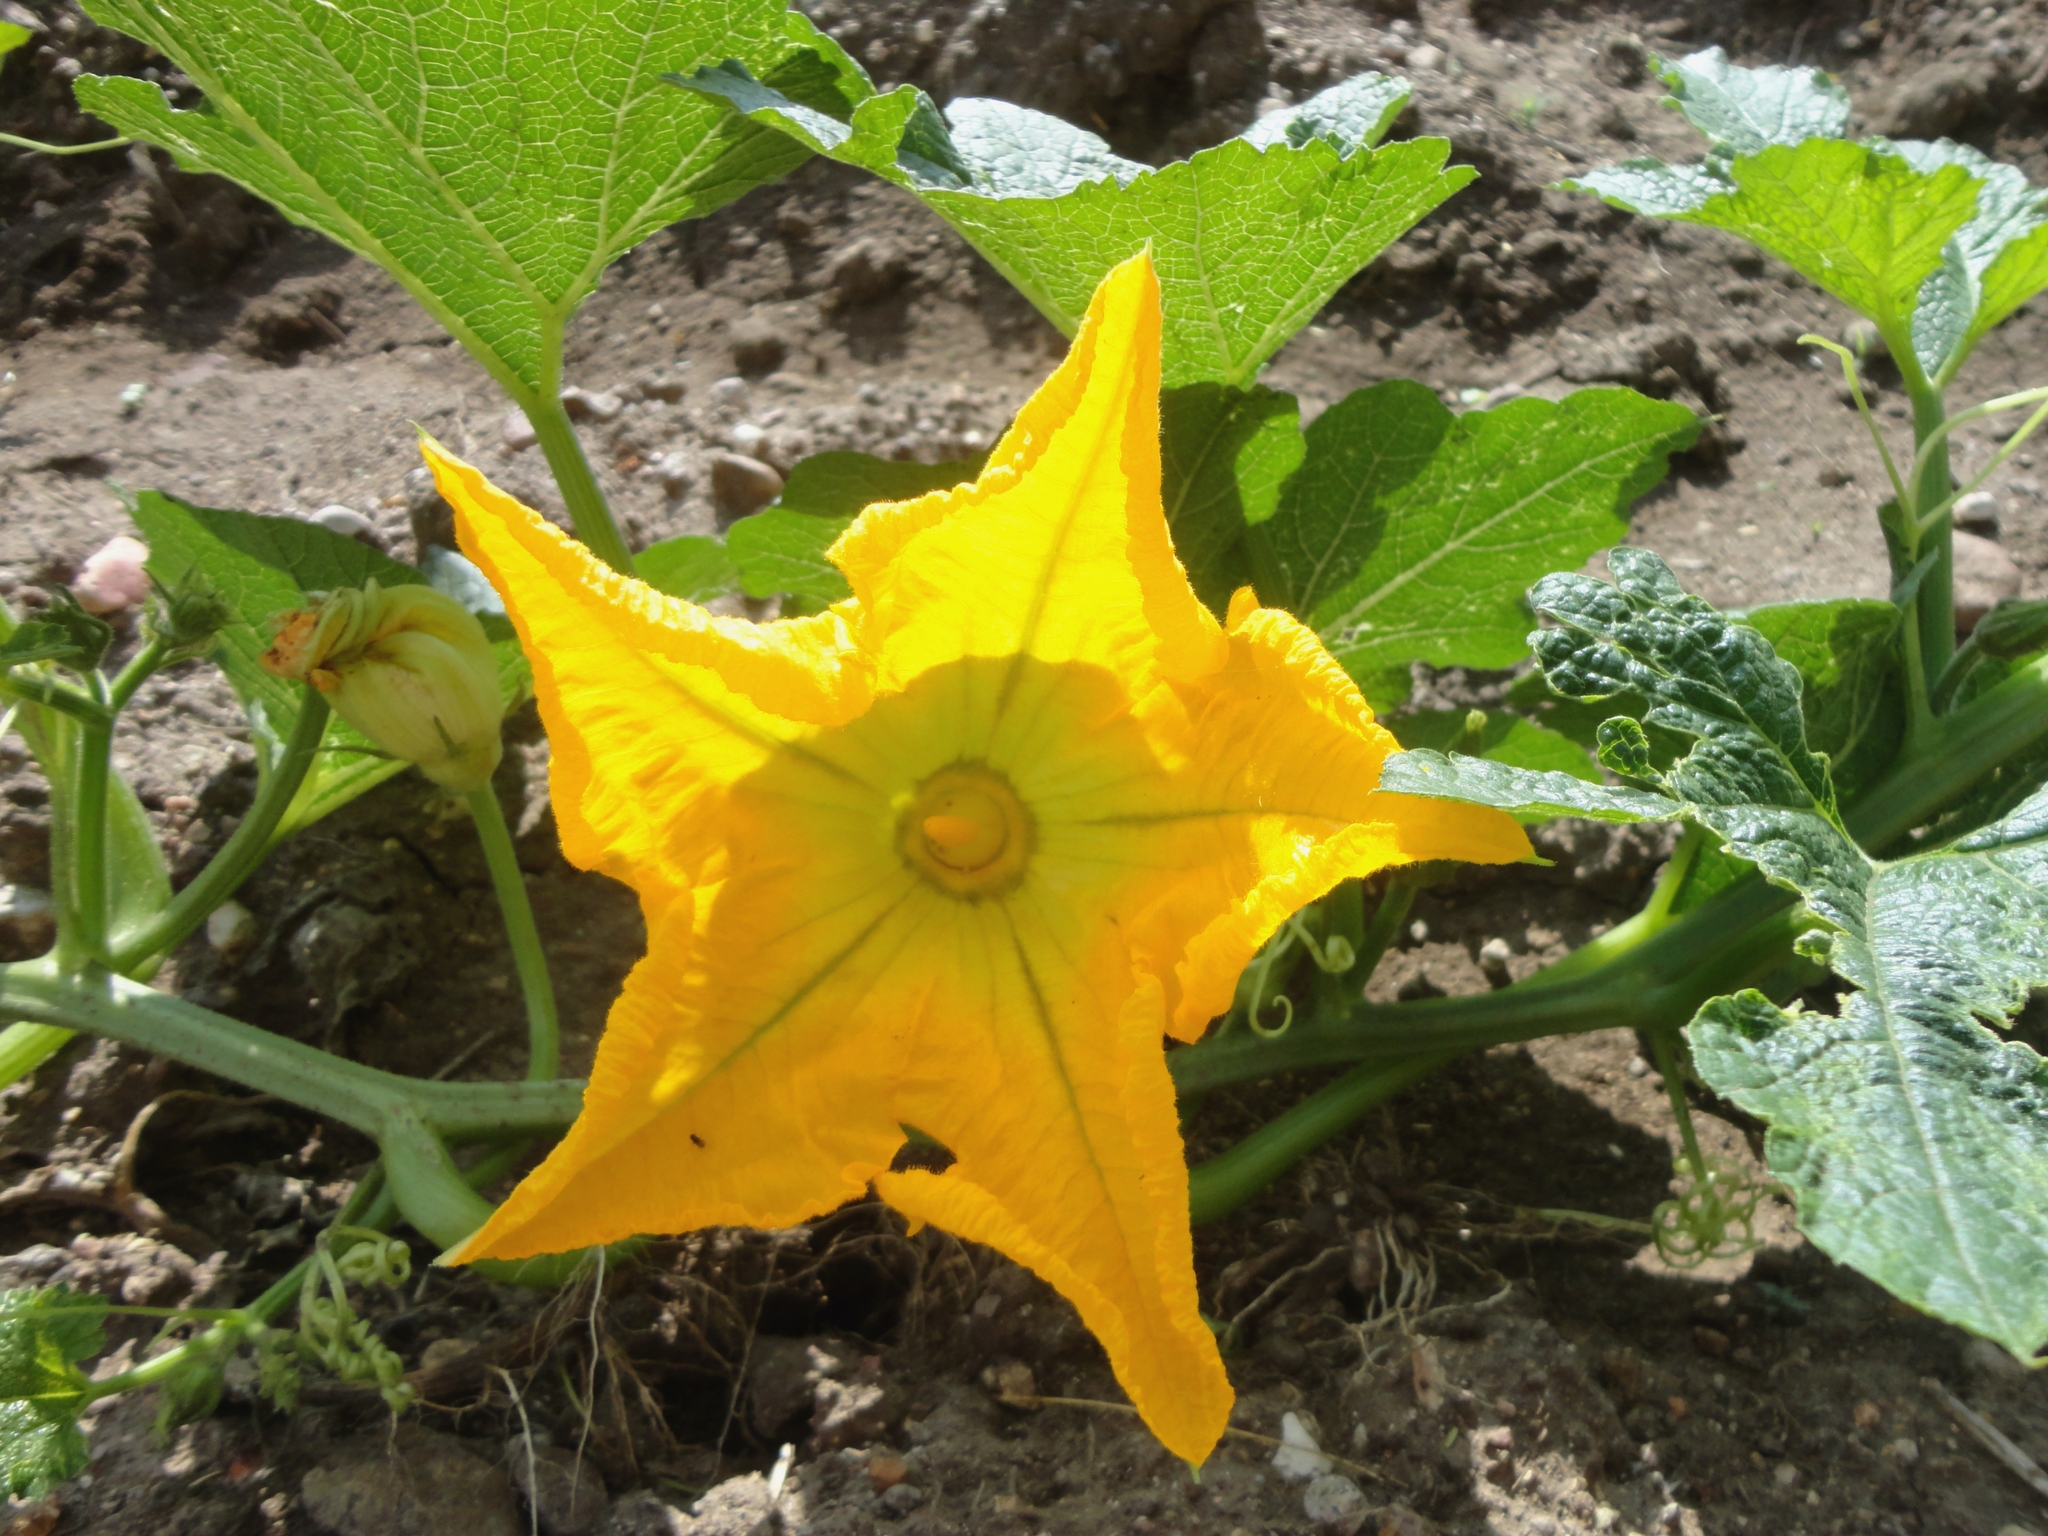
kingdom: Plantae
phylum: Tracheophyta
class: Magnoliopsida
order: Cucurbitales
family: Cucurbitaceae
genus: Cucurbita
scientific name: Cucurbita pepo
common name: Marrow
